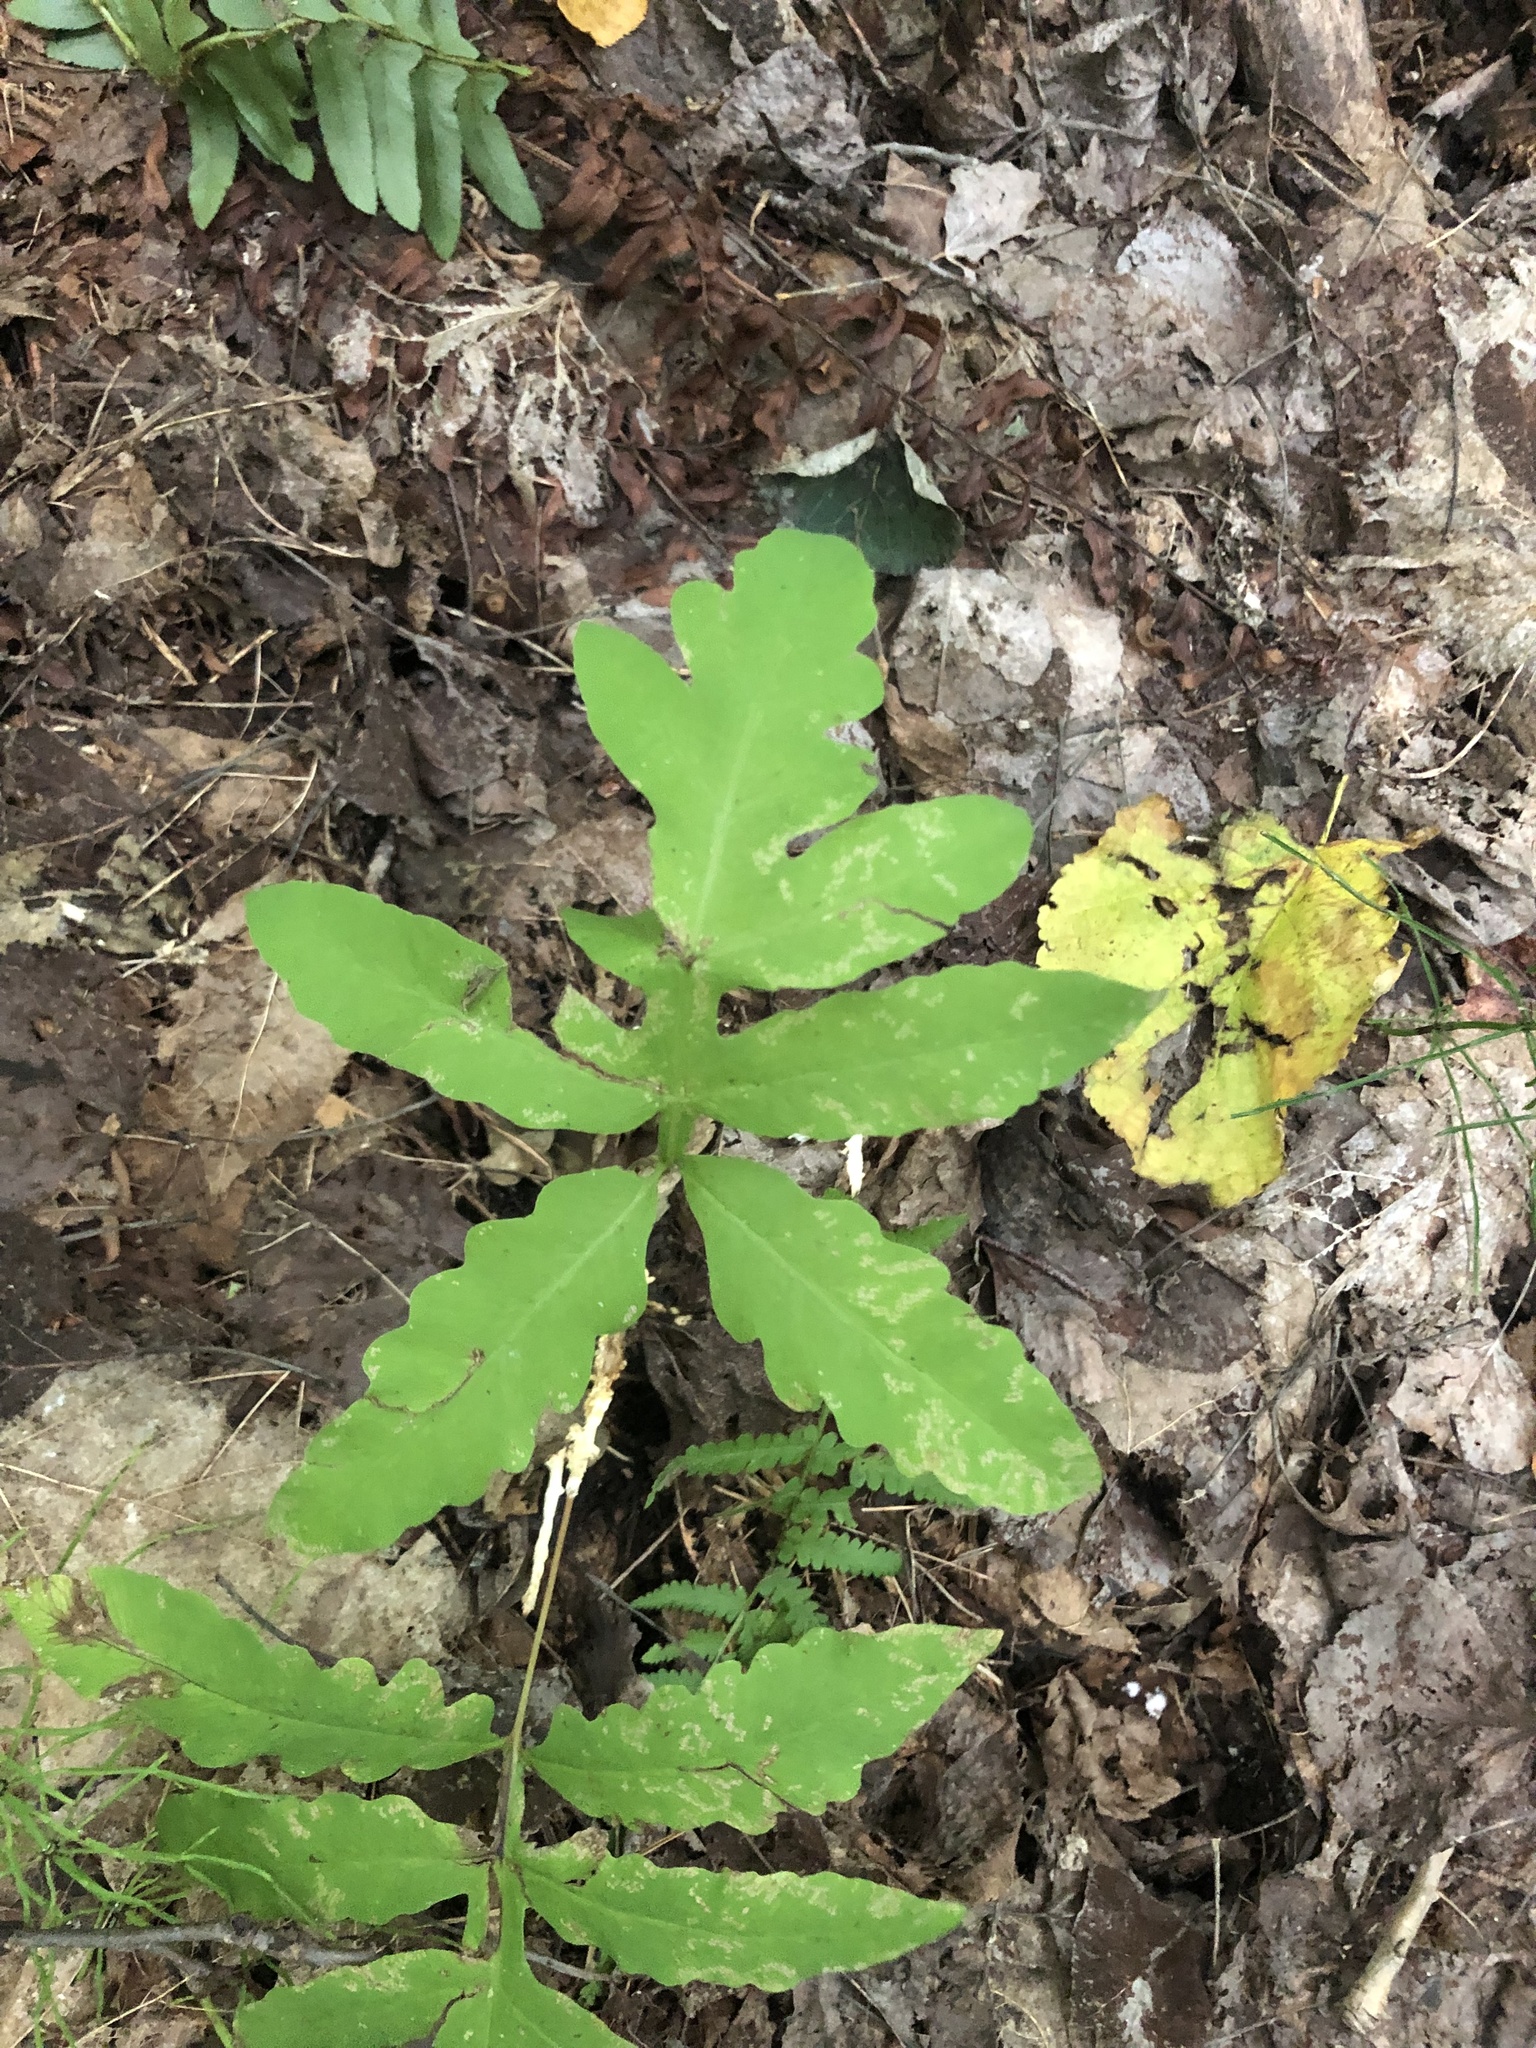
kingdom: Plantae
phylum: Tracheophyta
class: Polypodiopsida
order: Polypodiales
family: Onocleaceae
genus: Onoclea
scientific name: Onoclea sensibilis
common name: Sensitive fern
